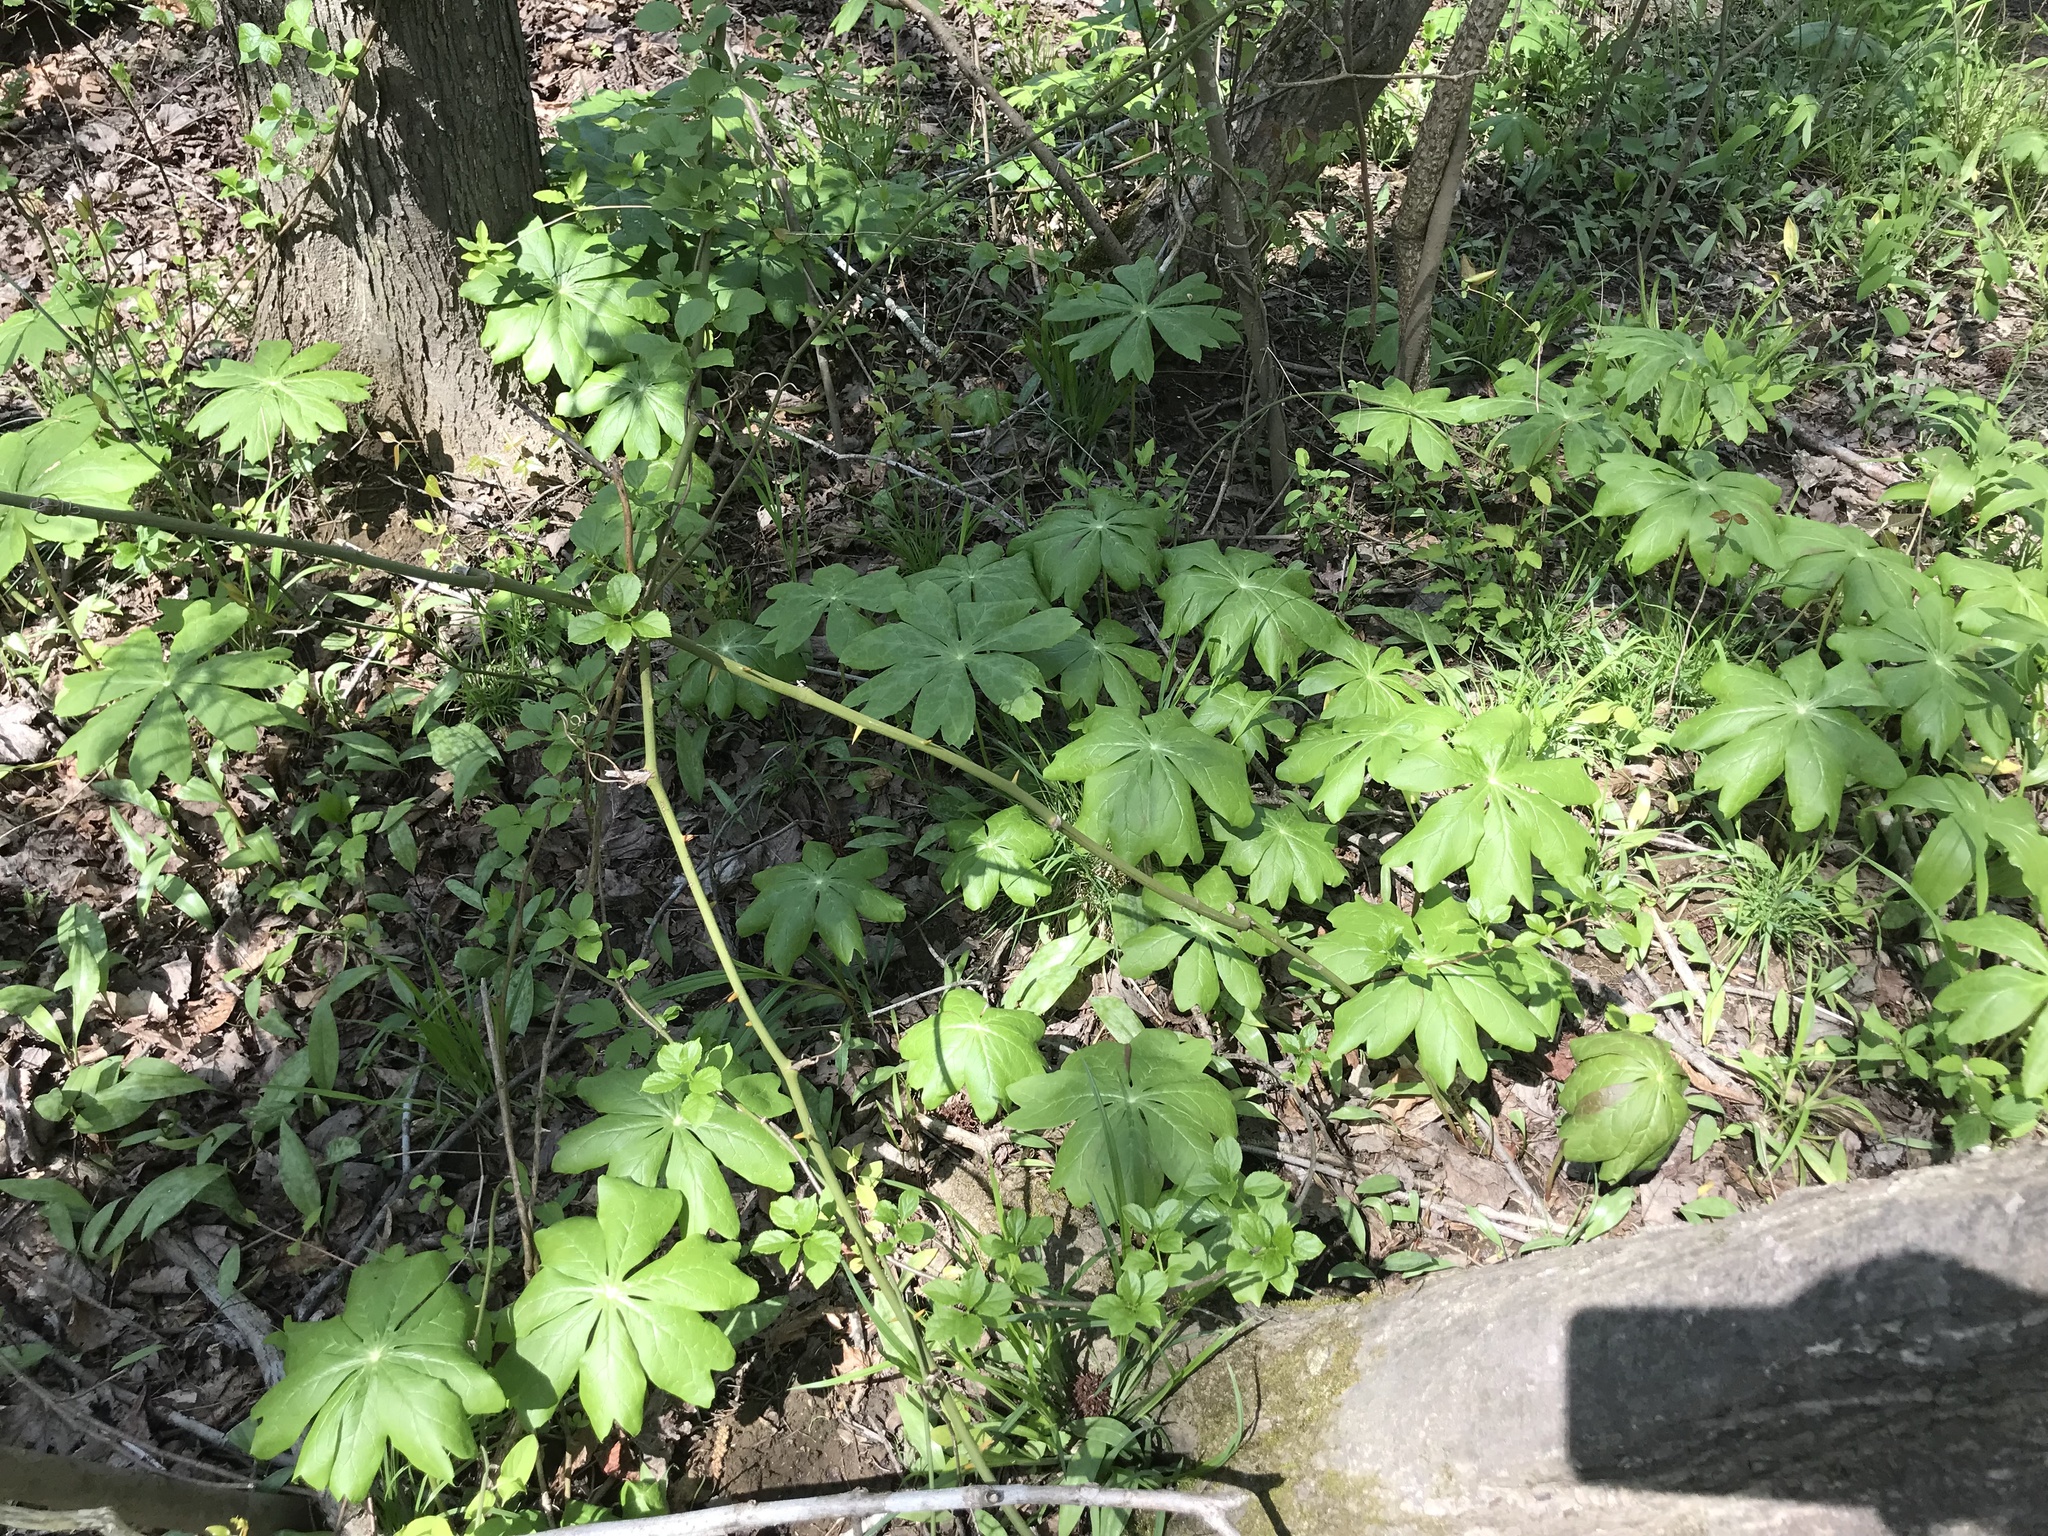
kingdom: Plantae
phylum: Tracheophyta
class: Magnoliopsida
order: Ranunculales
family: Berberidaceae
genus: Podophyllum
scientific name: Podophyllum peltatum
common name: Wild mandrake
